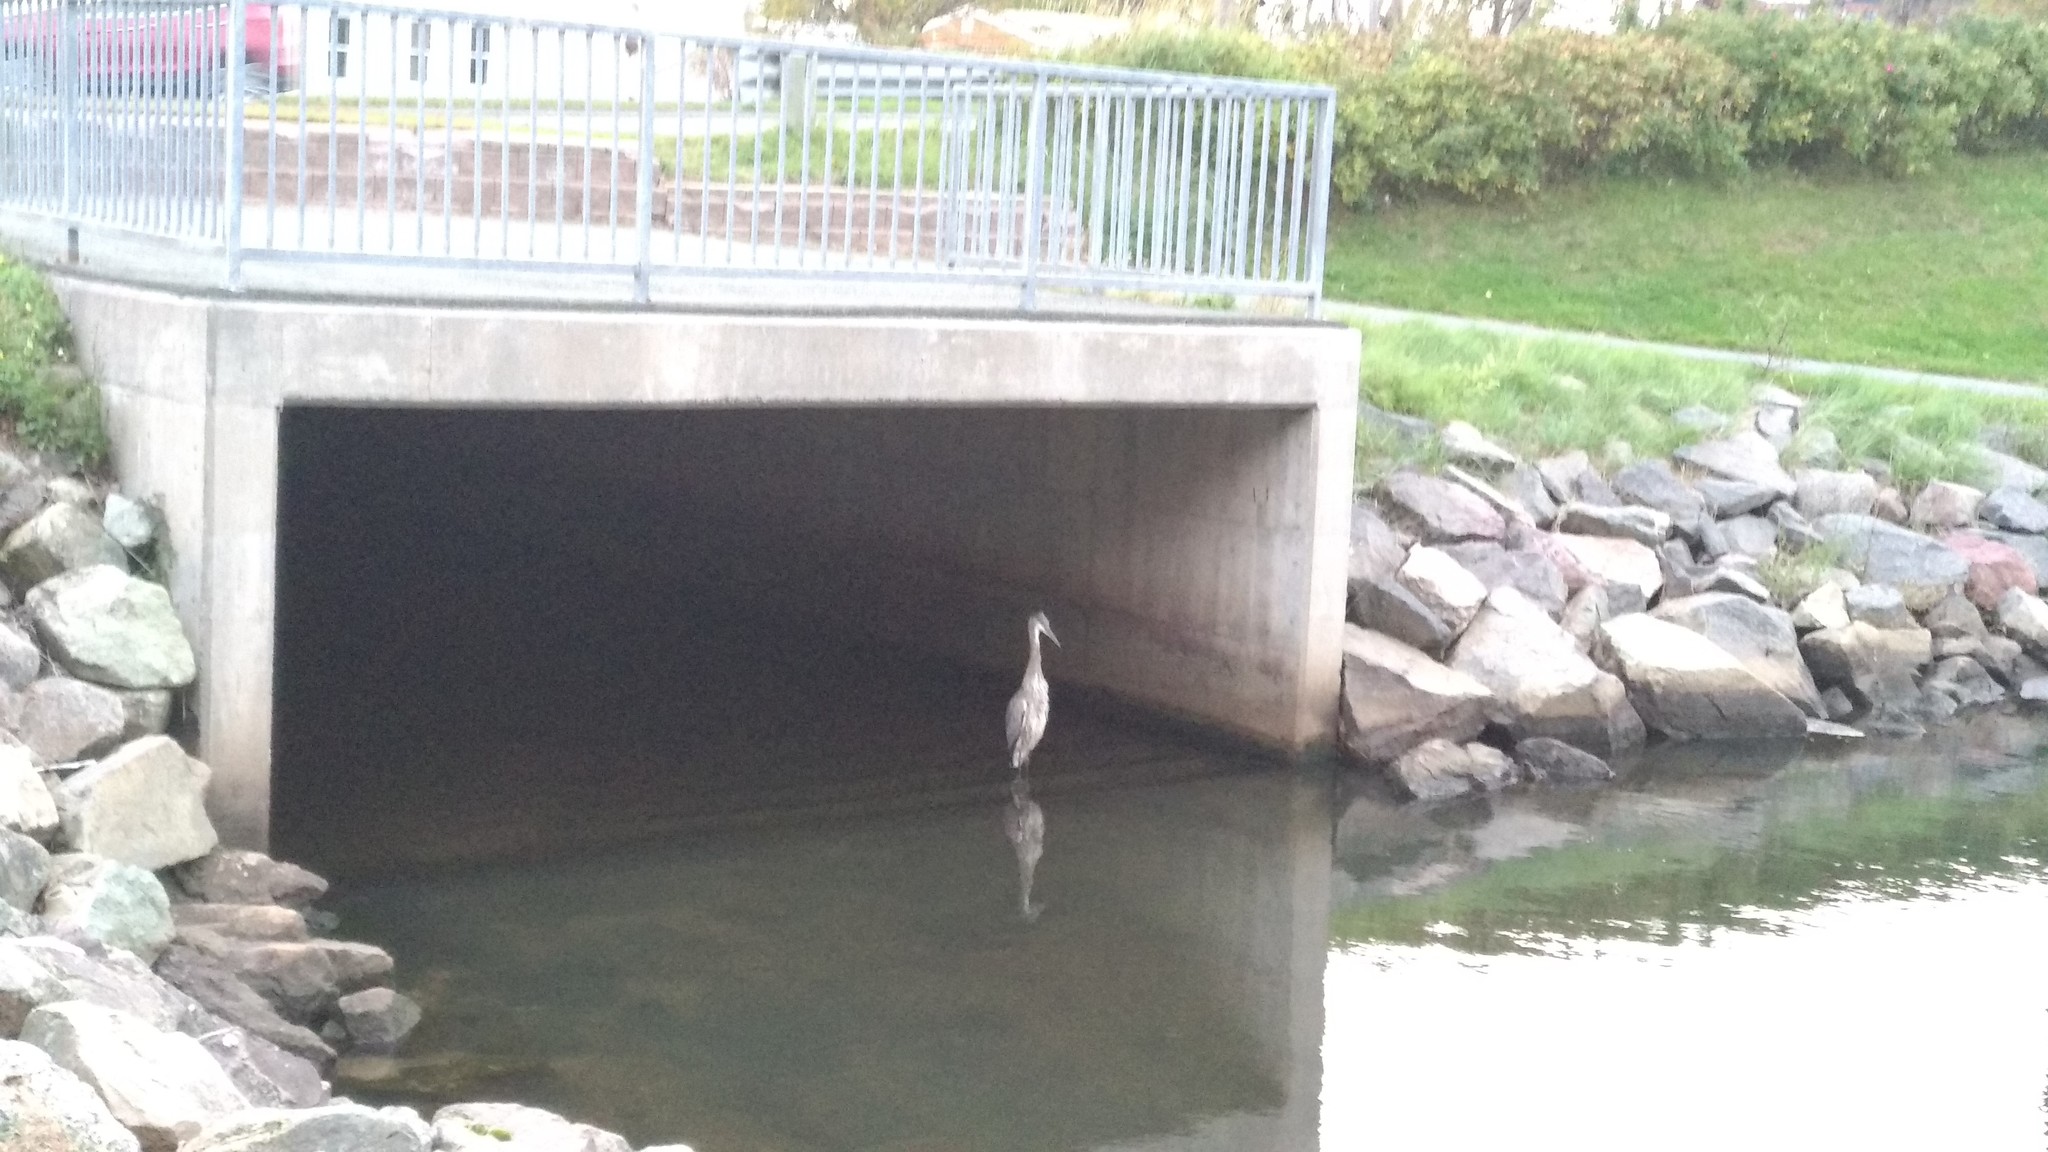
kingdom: Animalia
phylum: Chordata
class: Aves
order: Pelecaniformes
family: Ardeidae
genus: Ardea
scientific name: Ardea herodias
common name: Great blue heron
